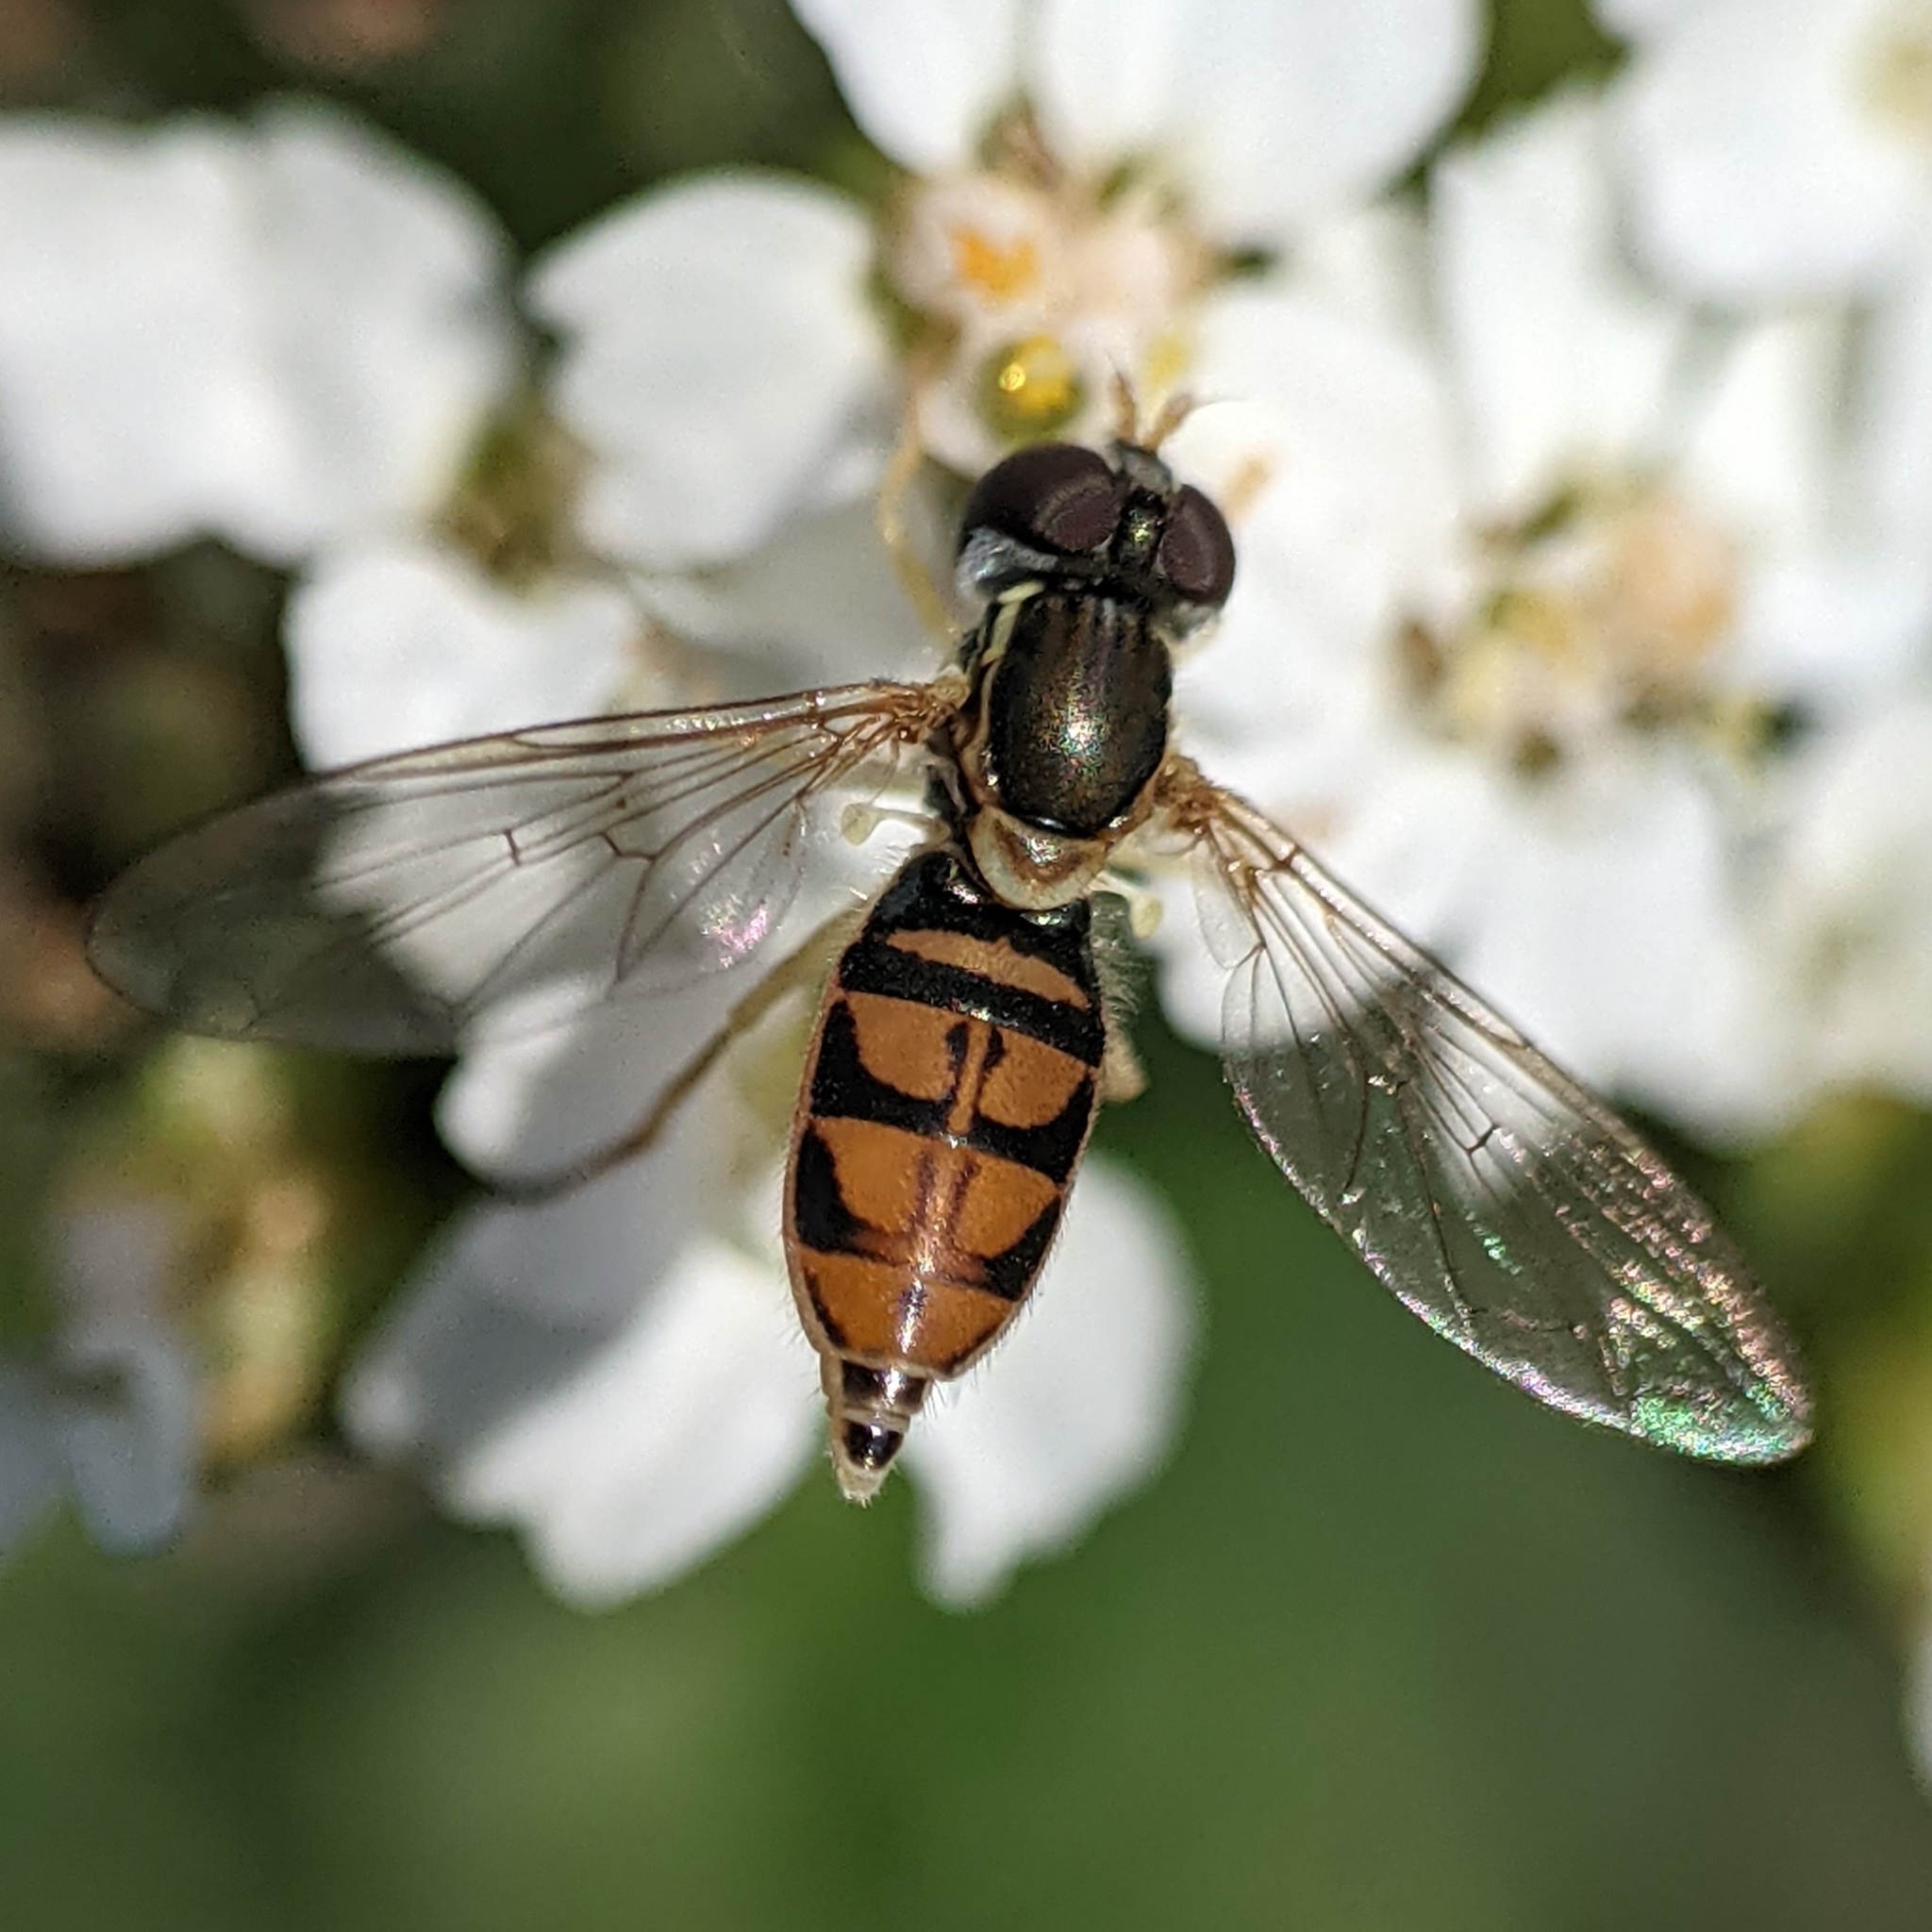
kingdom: Animalia
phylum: Arthropoda
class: Insecta
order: Diptera
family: Syrphidae
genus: Toxomerus
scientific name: Toxomerus marginatus
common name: Syrphid fly
